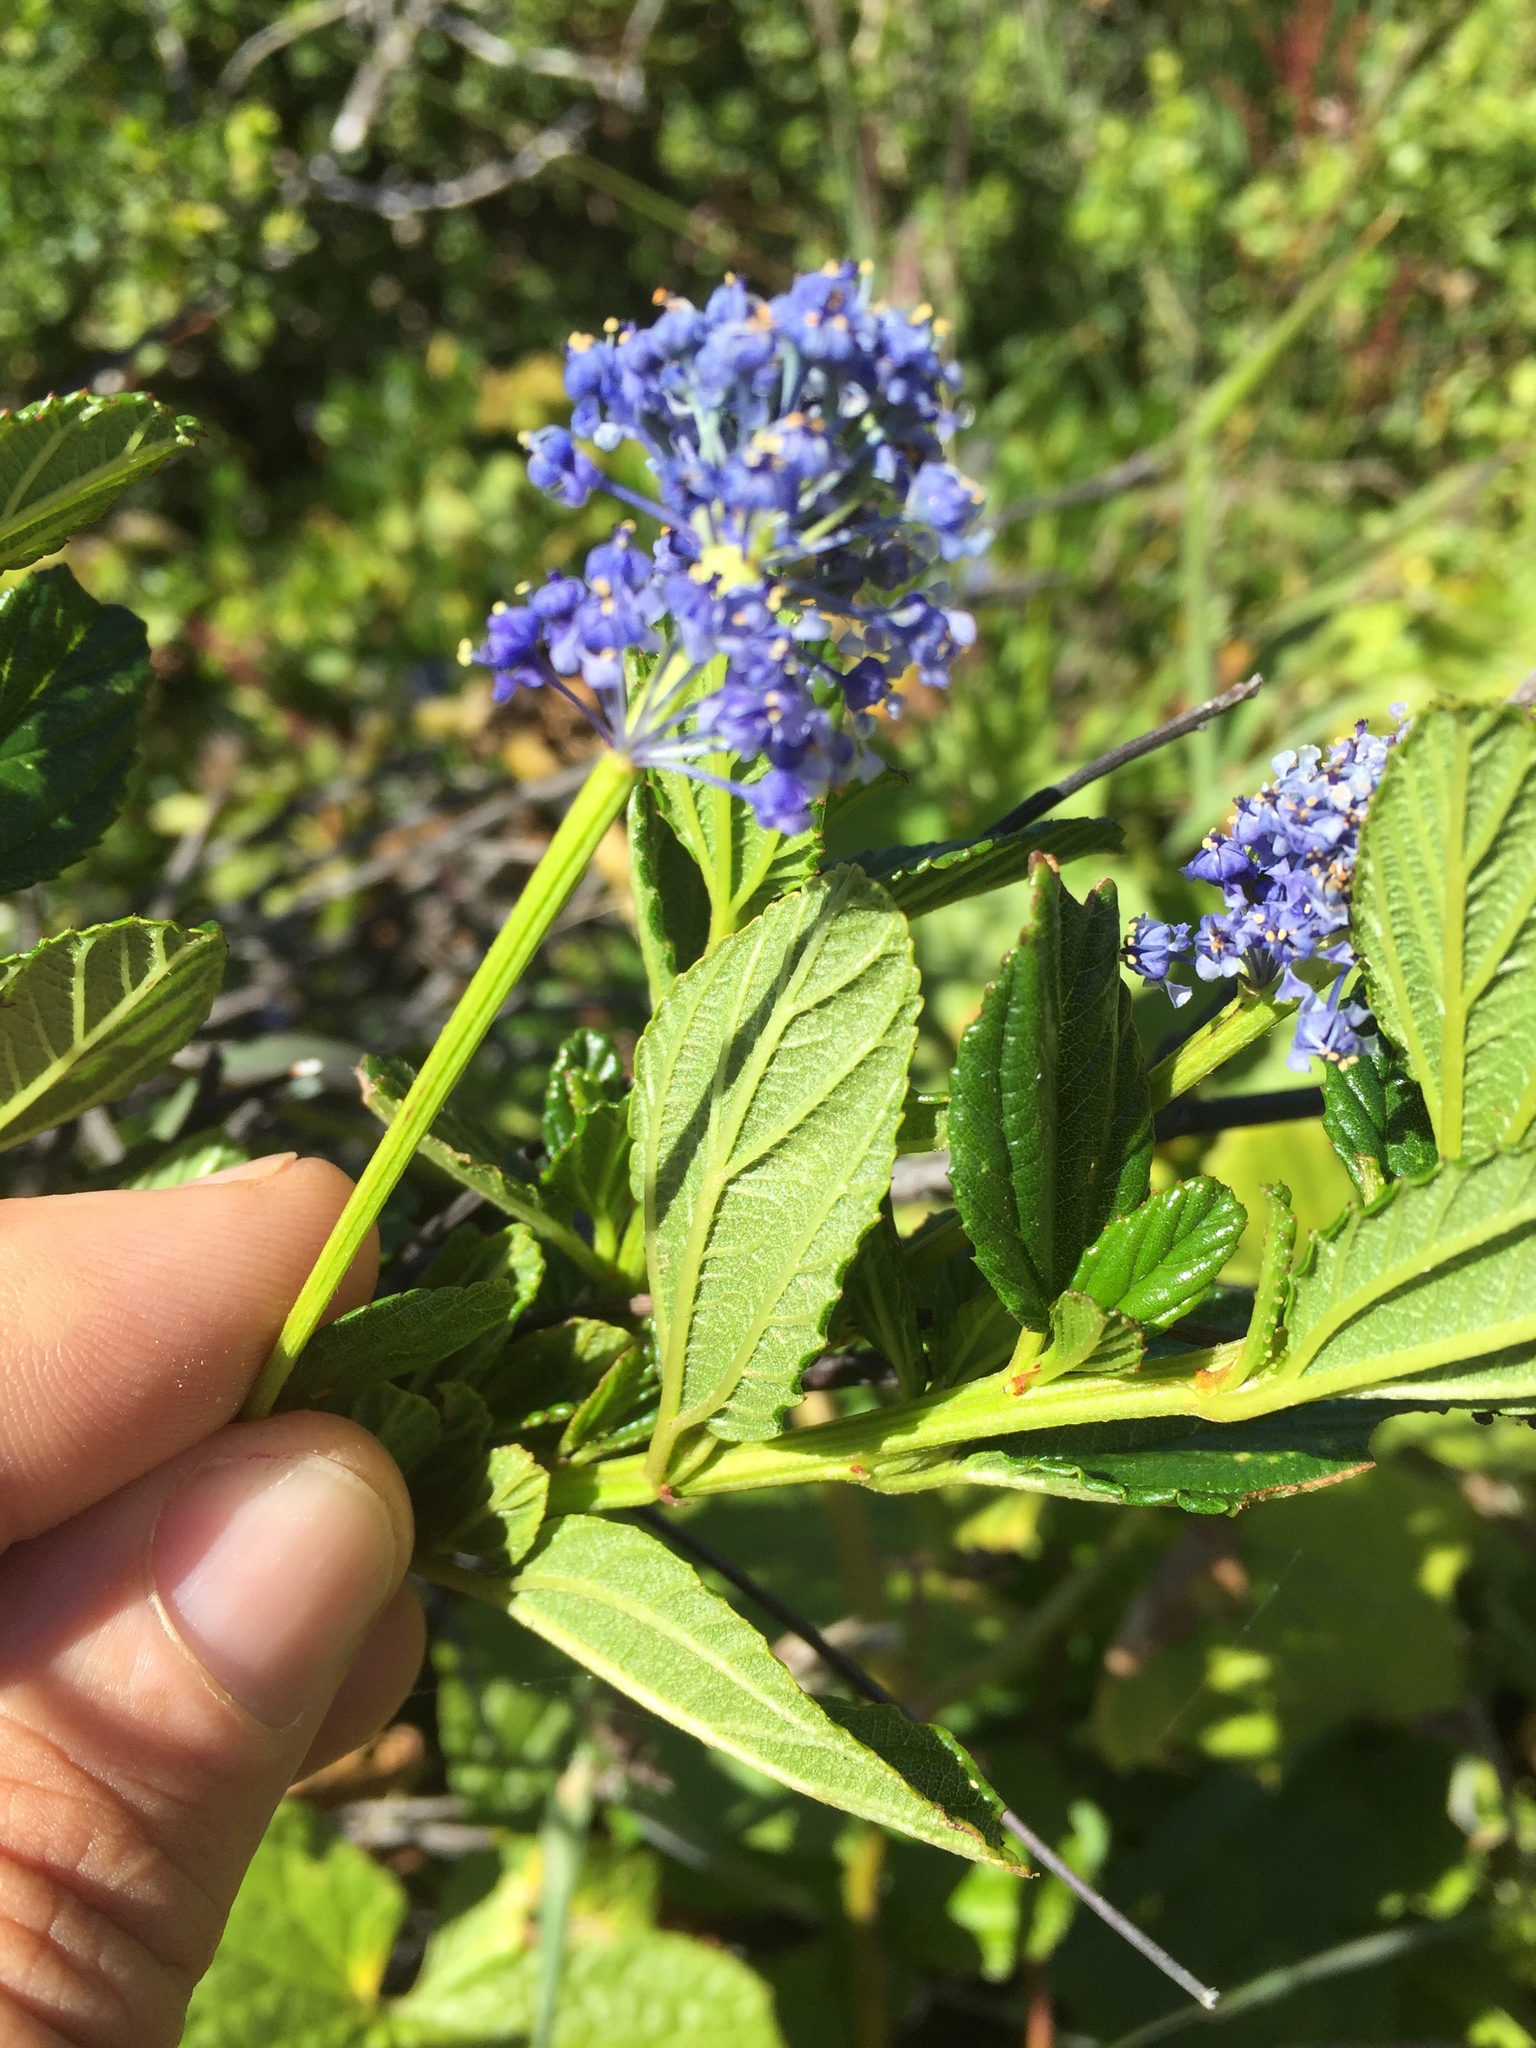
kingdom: Plantae
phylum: Tracheophyta
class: Magnoliopsida
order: Rosales
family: Rhamnaceae
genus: Ceanothus
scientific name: Ceanothus thyrsiflorus
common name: California-lilac
